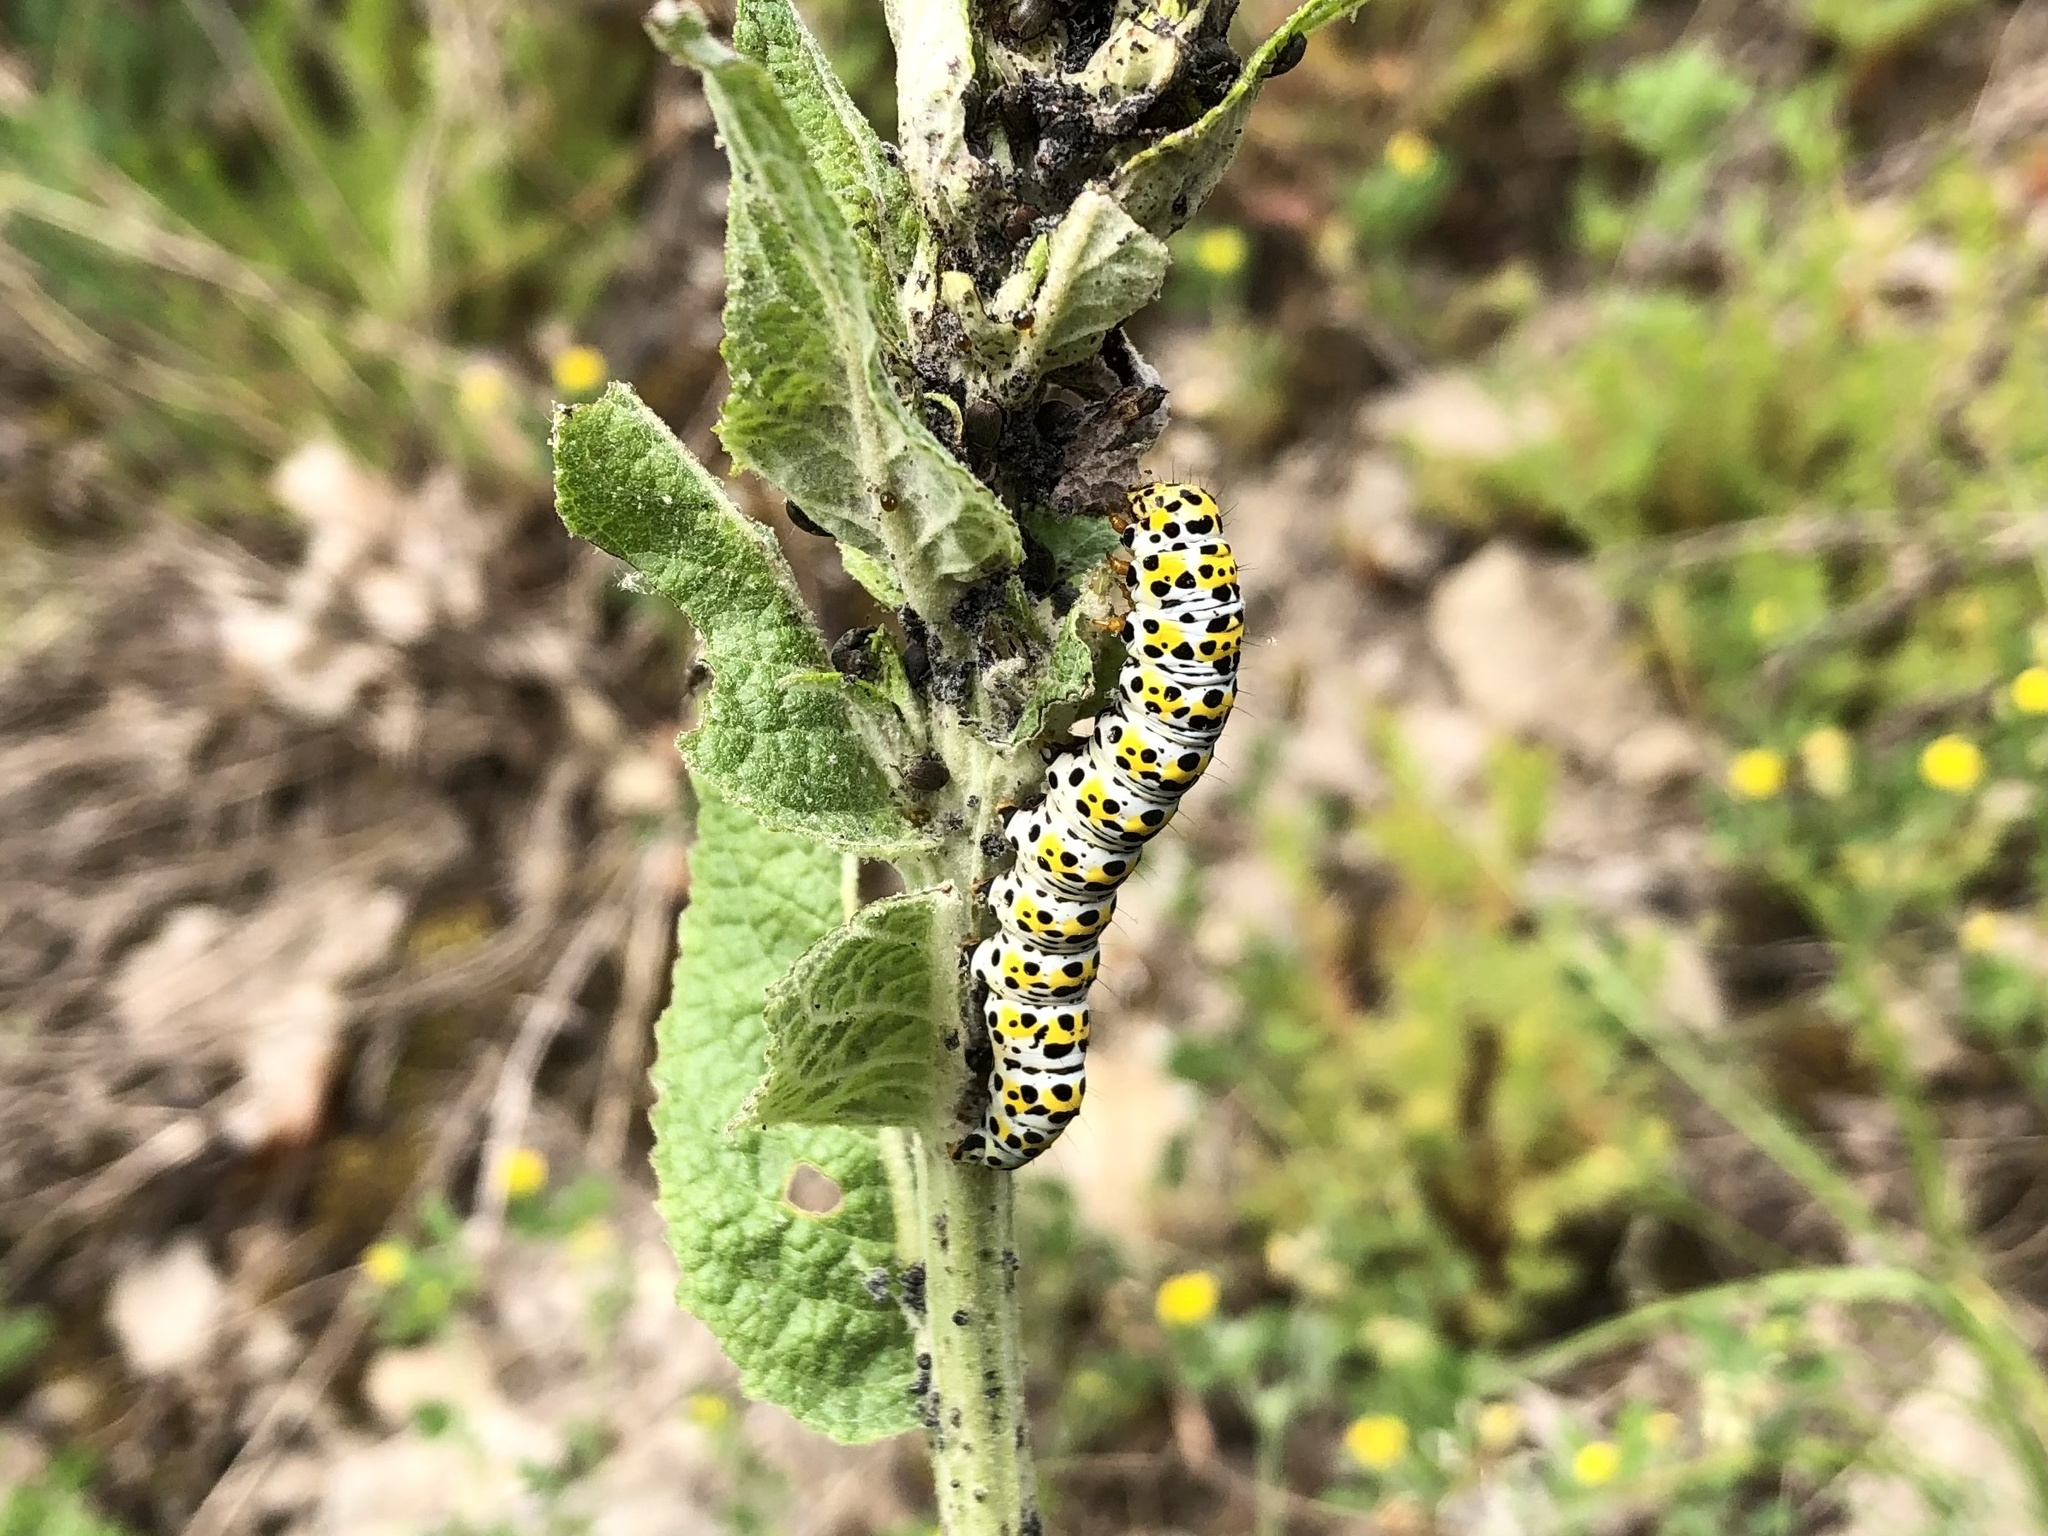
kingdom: Animalia
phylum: Arthropoda
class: Insecta
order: Lepidoptera
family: Noctuidae
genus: Cucullia
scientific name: Cucullia verbasci
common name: Mullein
